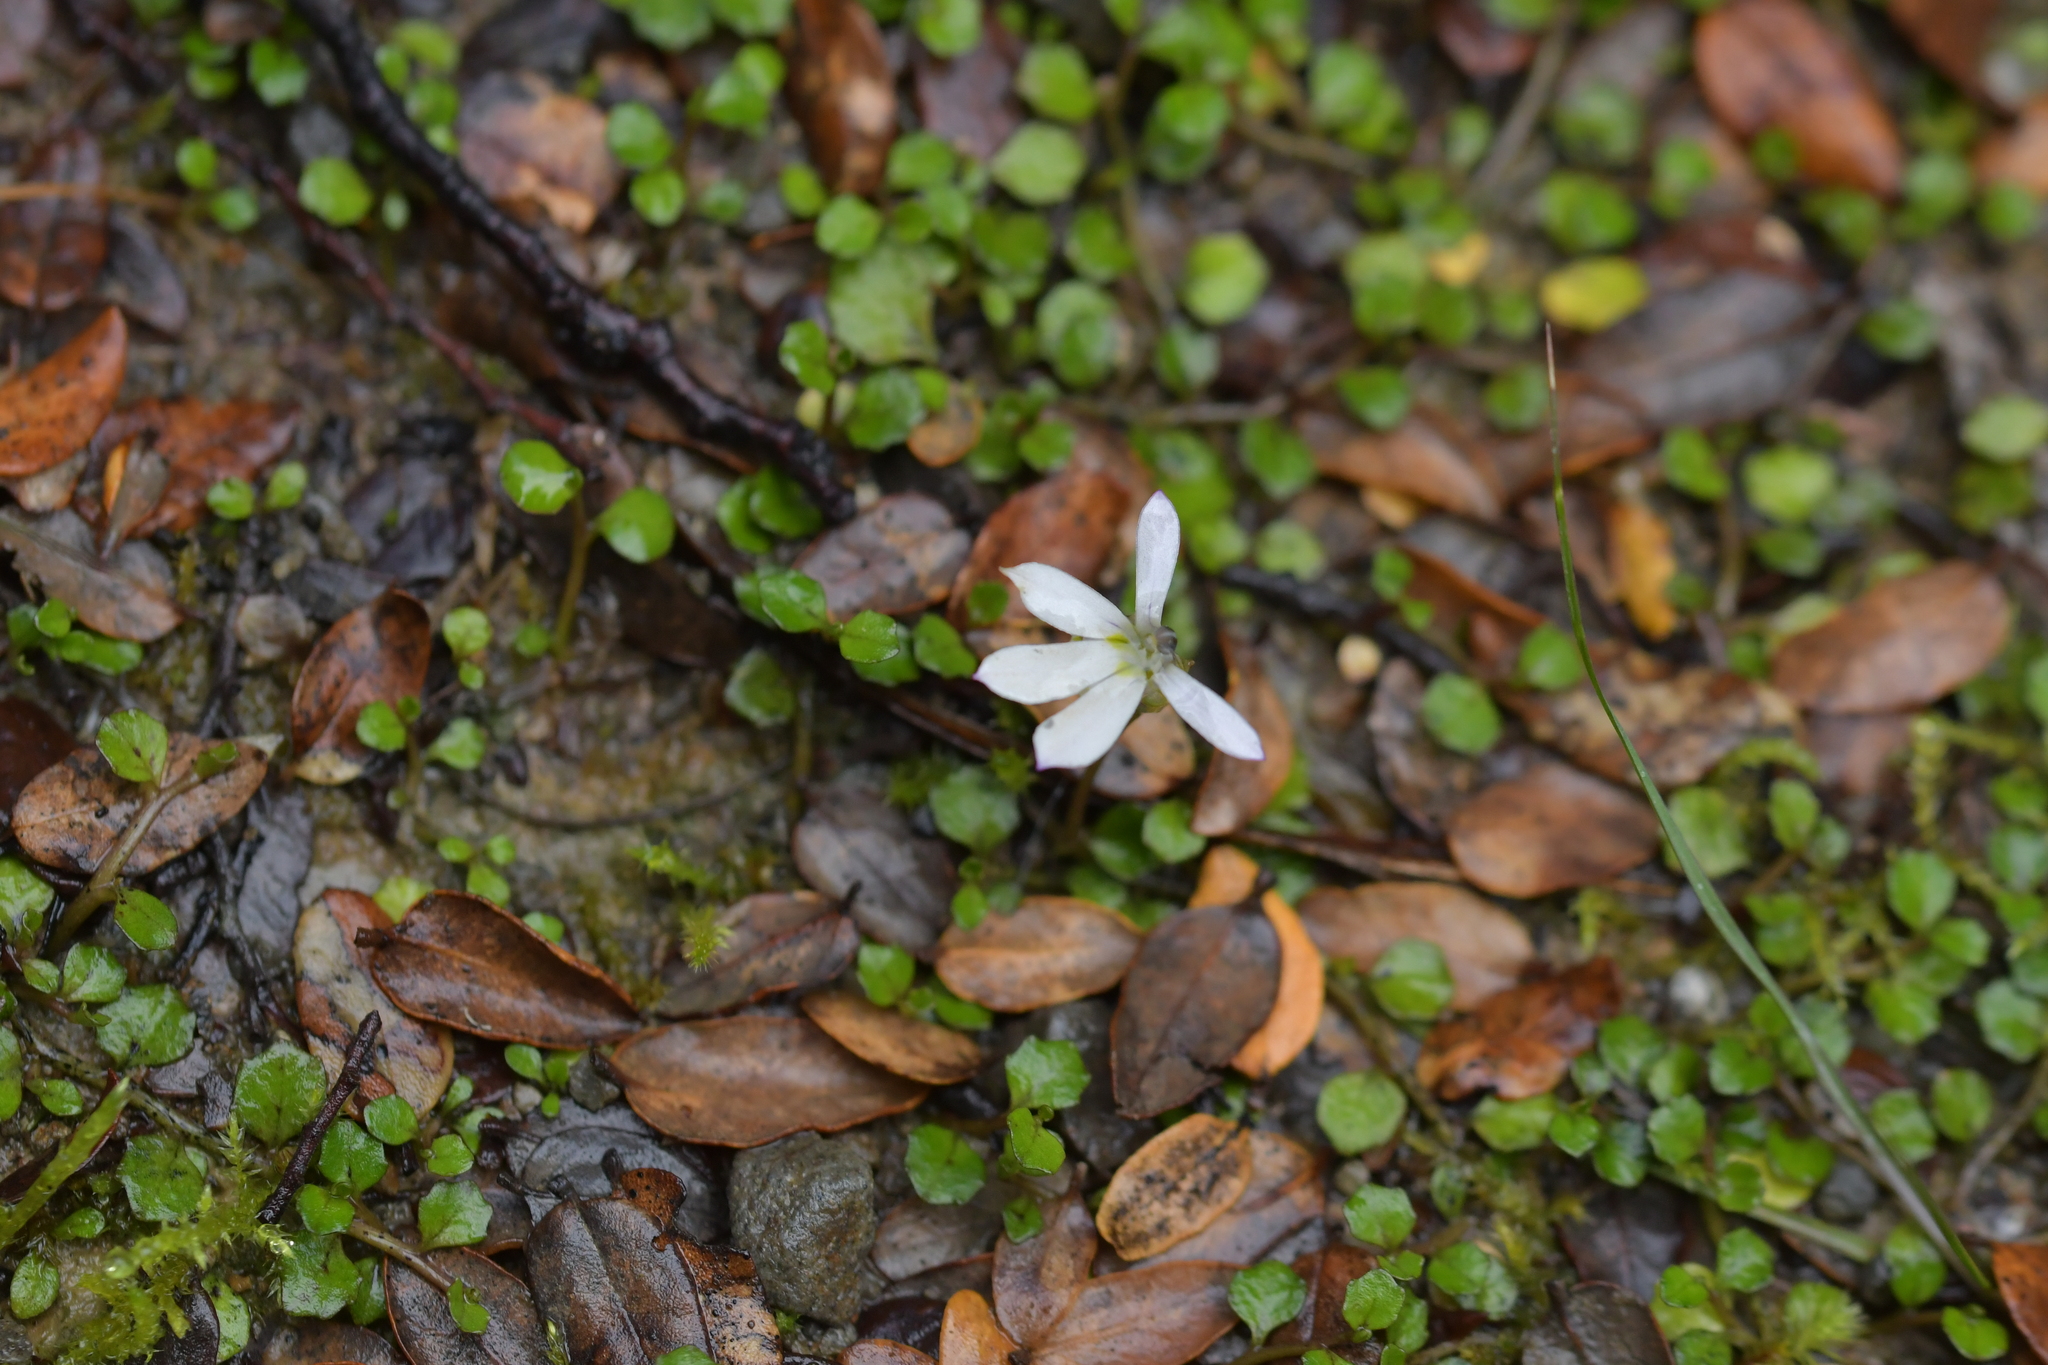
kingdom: Plantae
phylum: Tracheophyta
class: Magnoliopsida
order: Asterales
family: Campanulaceae
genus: Lobelia
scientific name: Lobelia angulata
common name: Lawn lobelia
